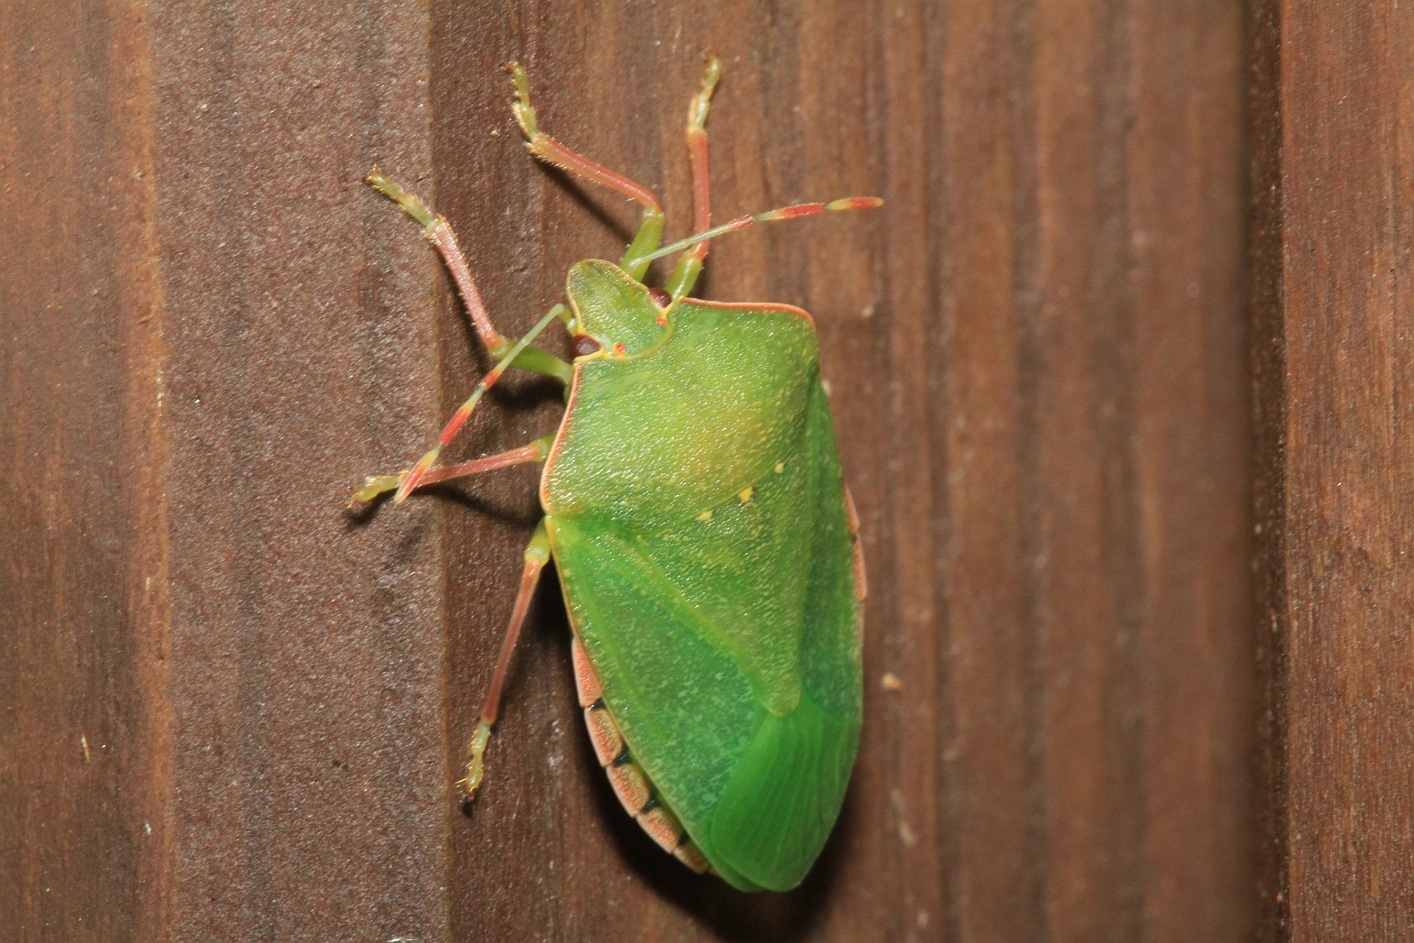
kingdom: Animalia
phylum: Arthropoda
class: Insecta
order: Hemiptera
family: Pentatomidae
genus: Nezara
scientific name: Nezara viridula
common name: Southern green stink bug
